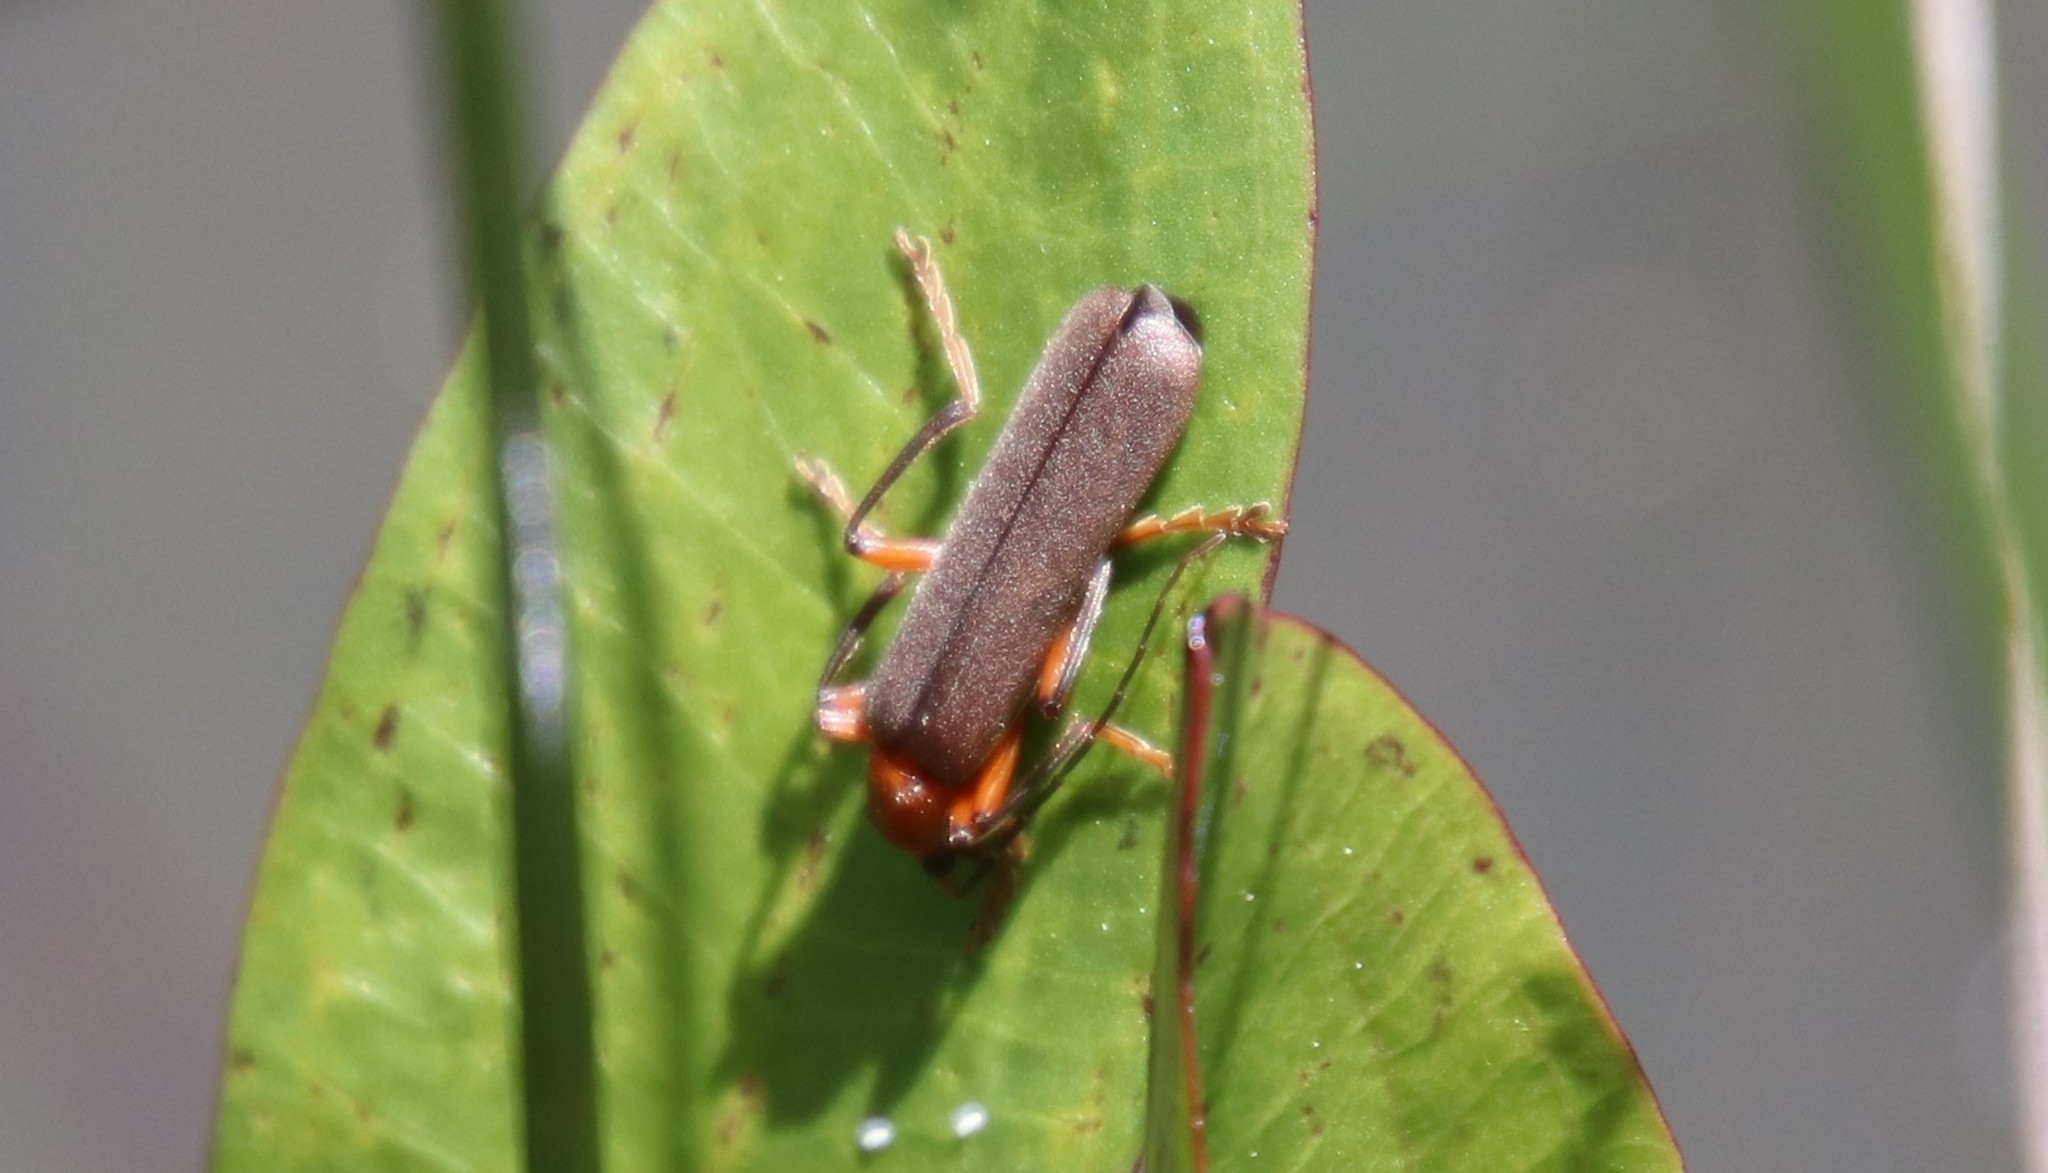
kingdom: Animalia
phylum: Arthropoda
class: Insecta
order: Coleoptera
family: Cantharidae
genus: Pacificanthia
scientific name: Pacificanthia consors
